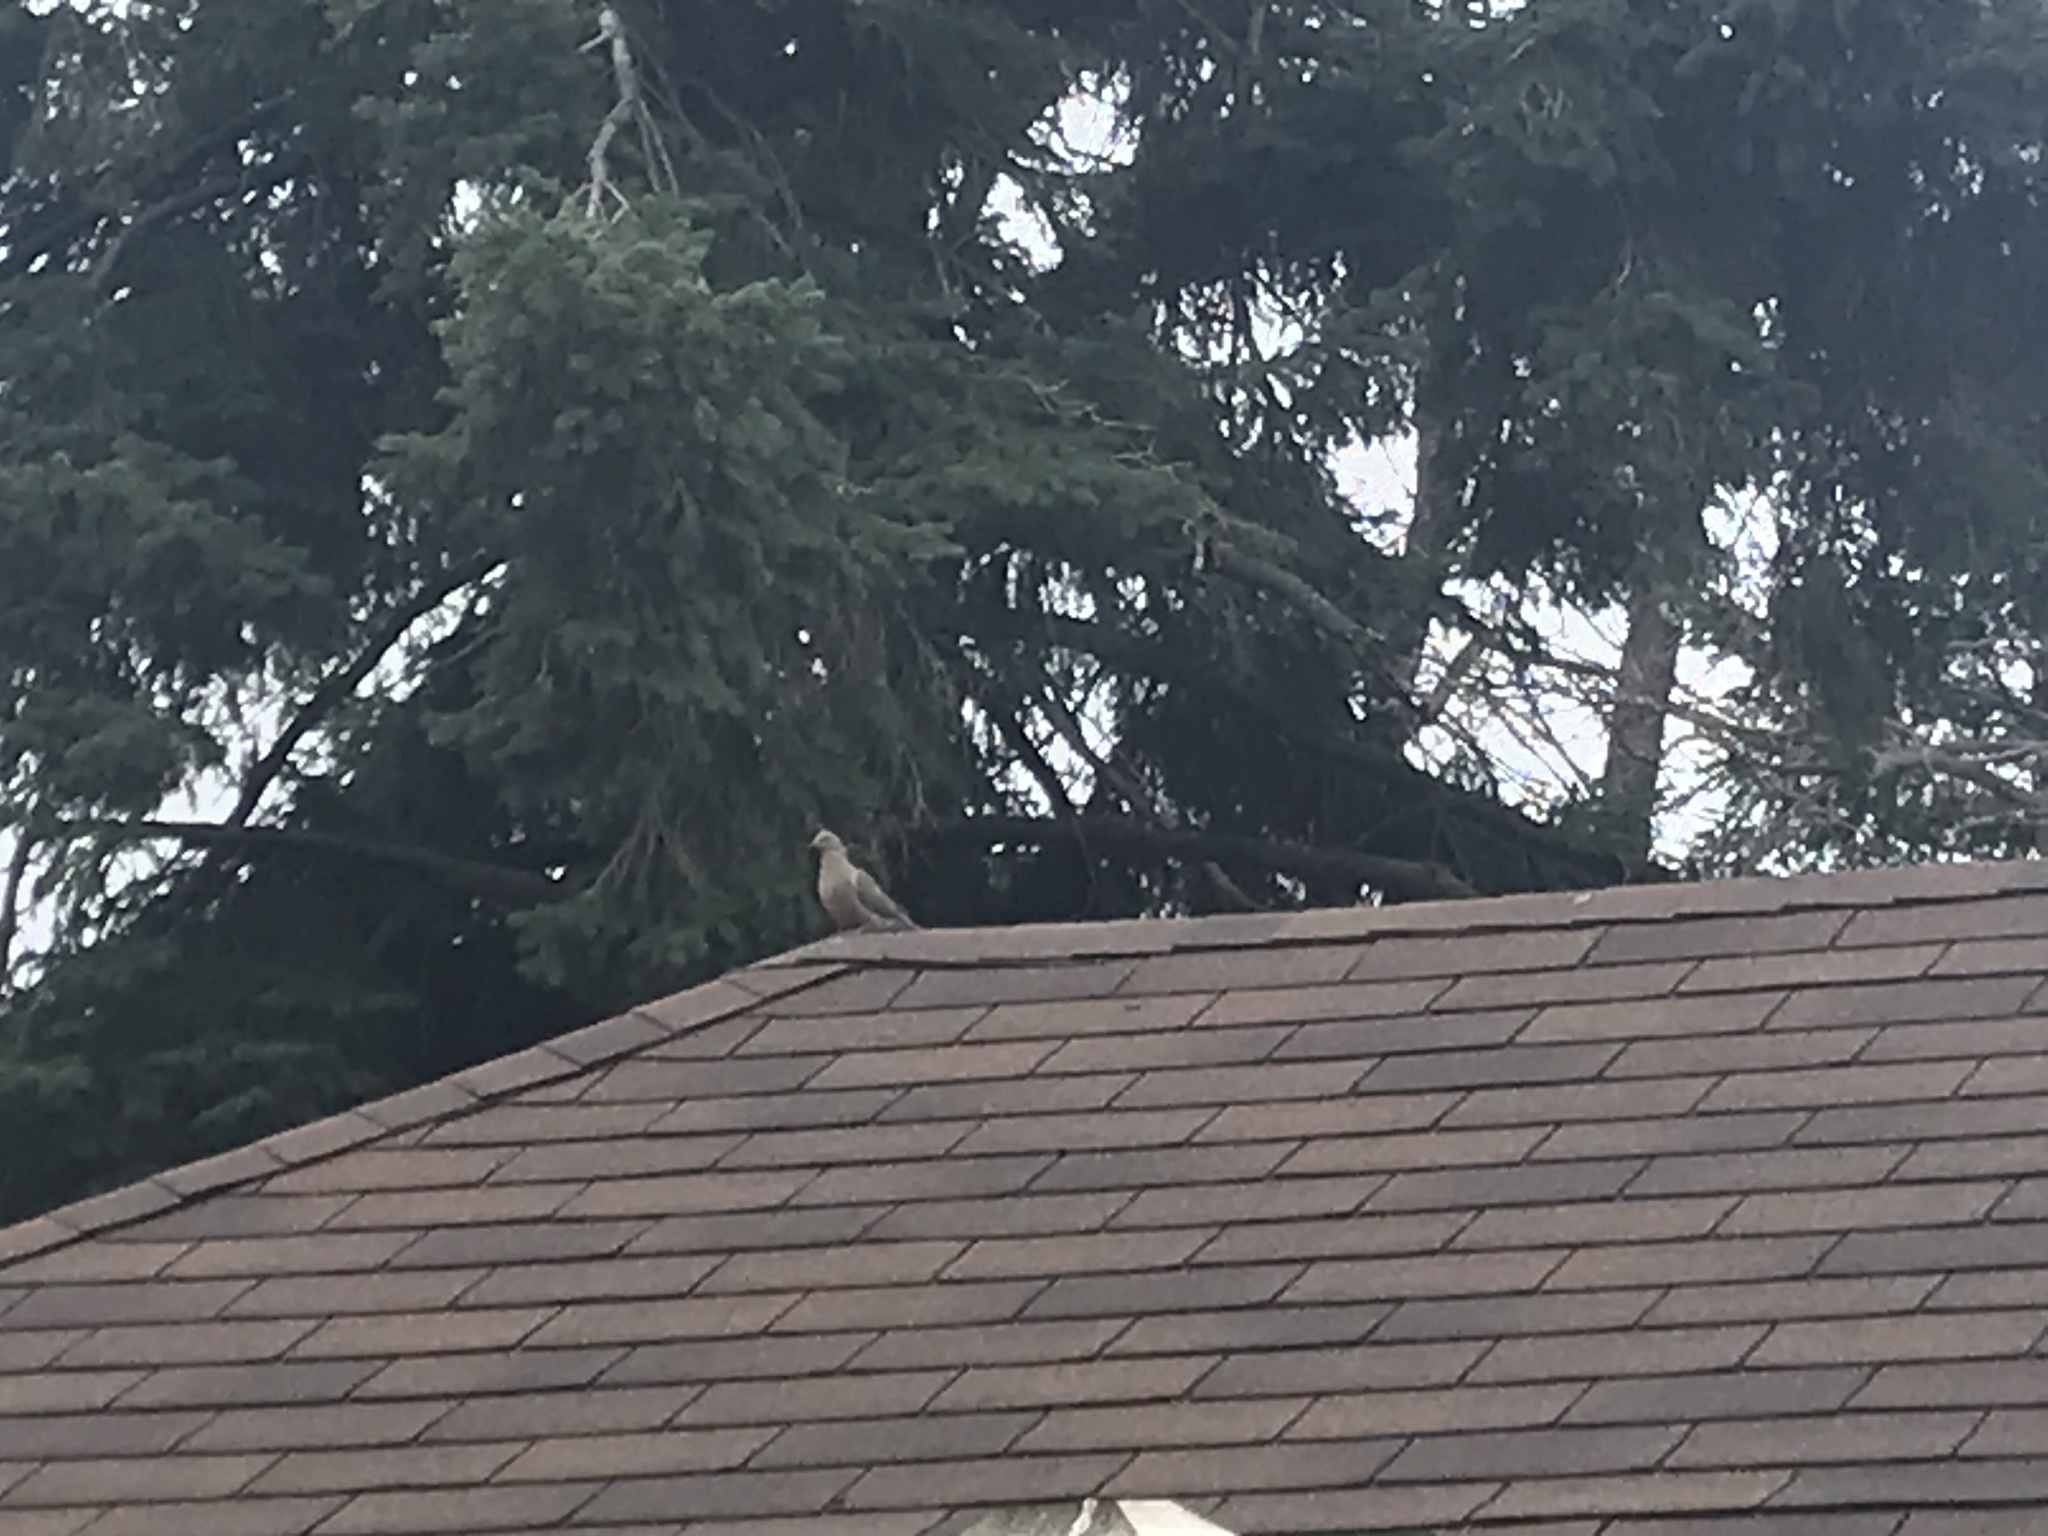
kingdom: Animalia
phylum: Chordata
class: Aves
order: Columbiformes
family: Columbidae
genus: Zenaida
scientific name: Zenaida macroura
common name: Mourning dove
